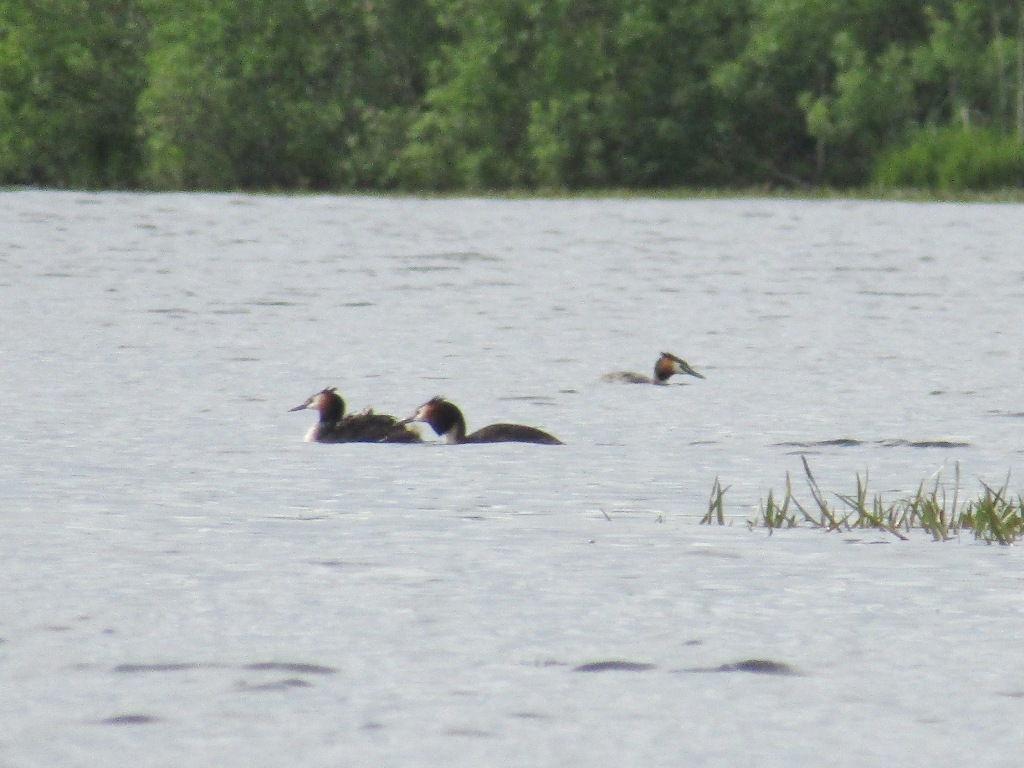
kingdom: Animalia
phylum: Chordata
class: Aves
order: Podicipediformes
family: Podicipedidae
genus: Podiceps
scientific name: Podiceps cristatus
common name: Great crested grebe
